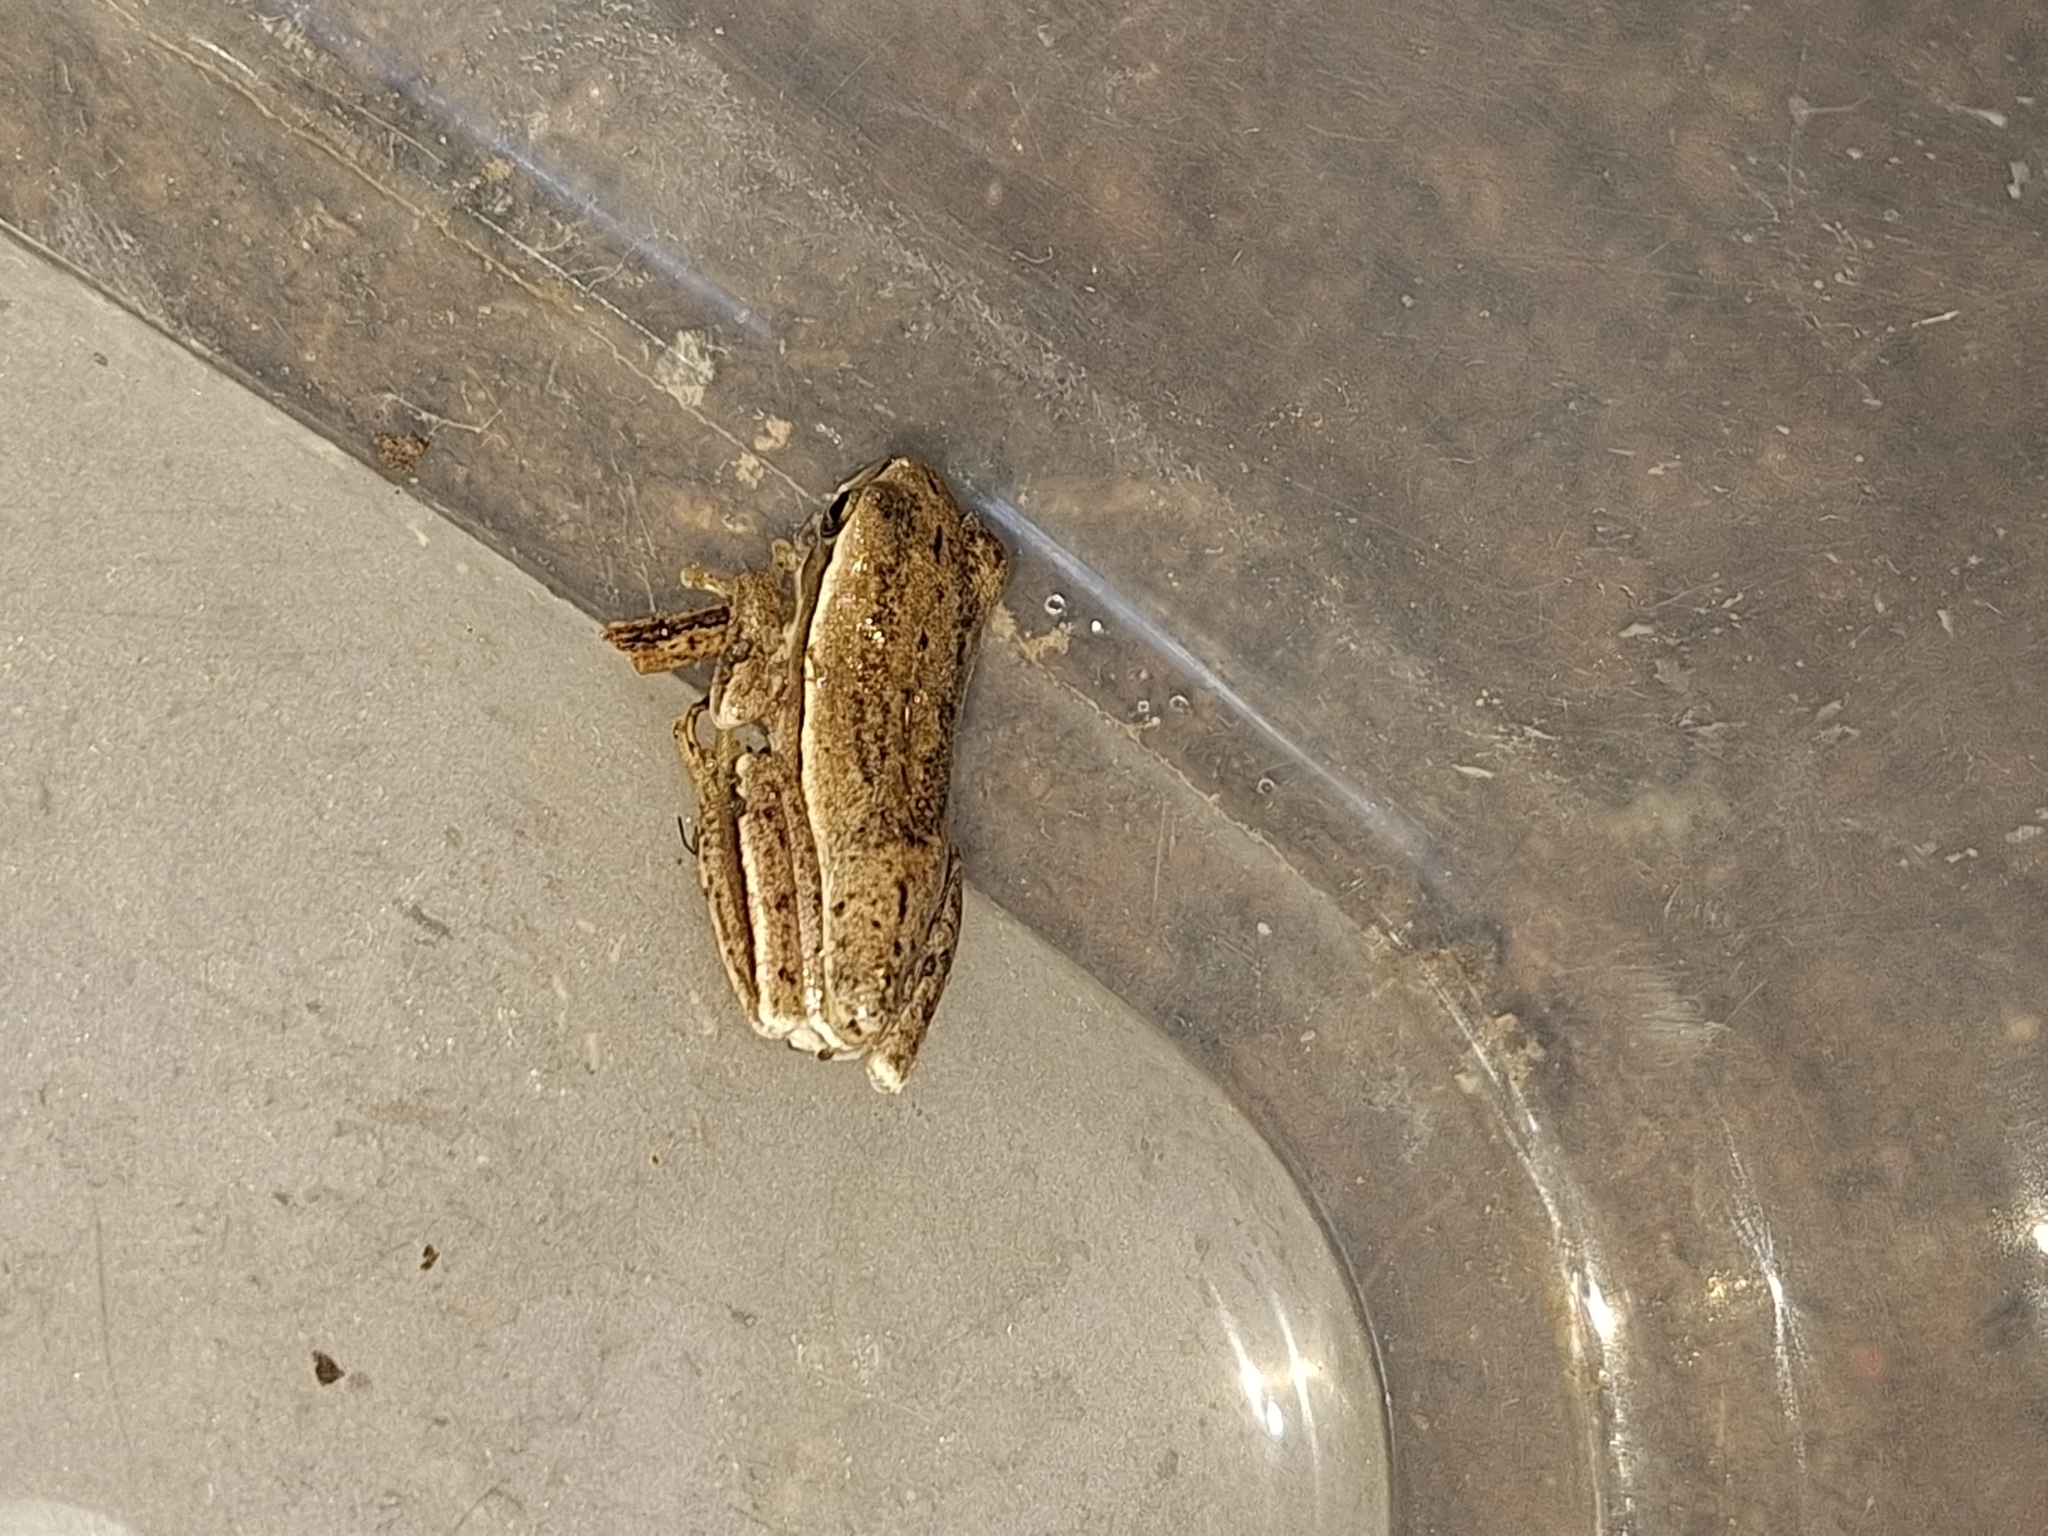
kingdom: Animalia
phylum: Chordata
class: Amphibia
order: Anura
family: Hylidae
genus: Boana
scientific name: Boana pulchella
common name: Montevideo treefrog
